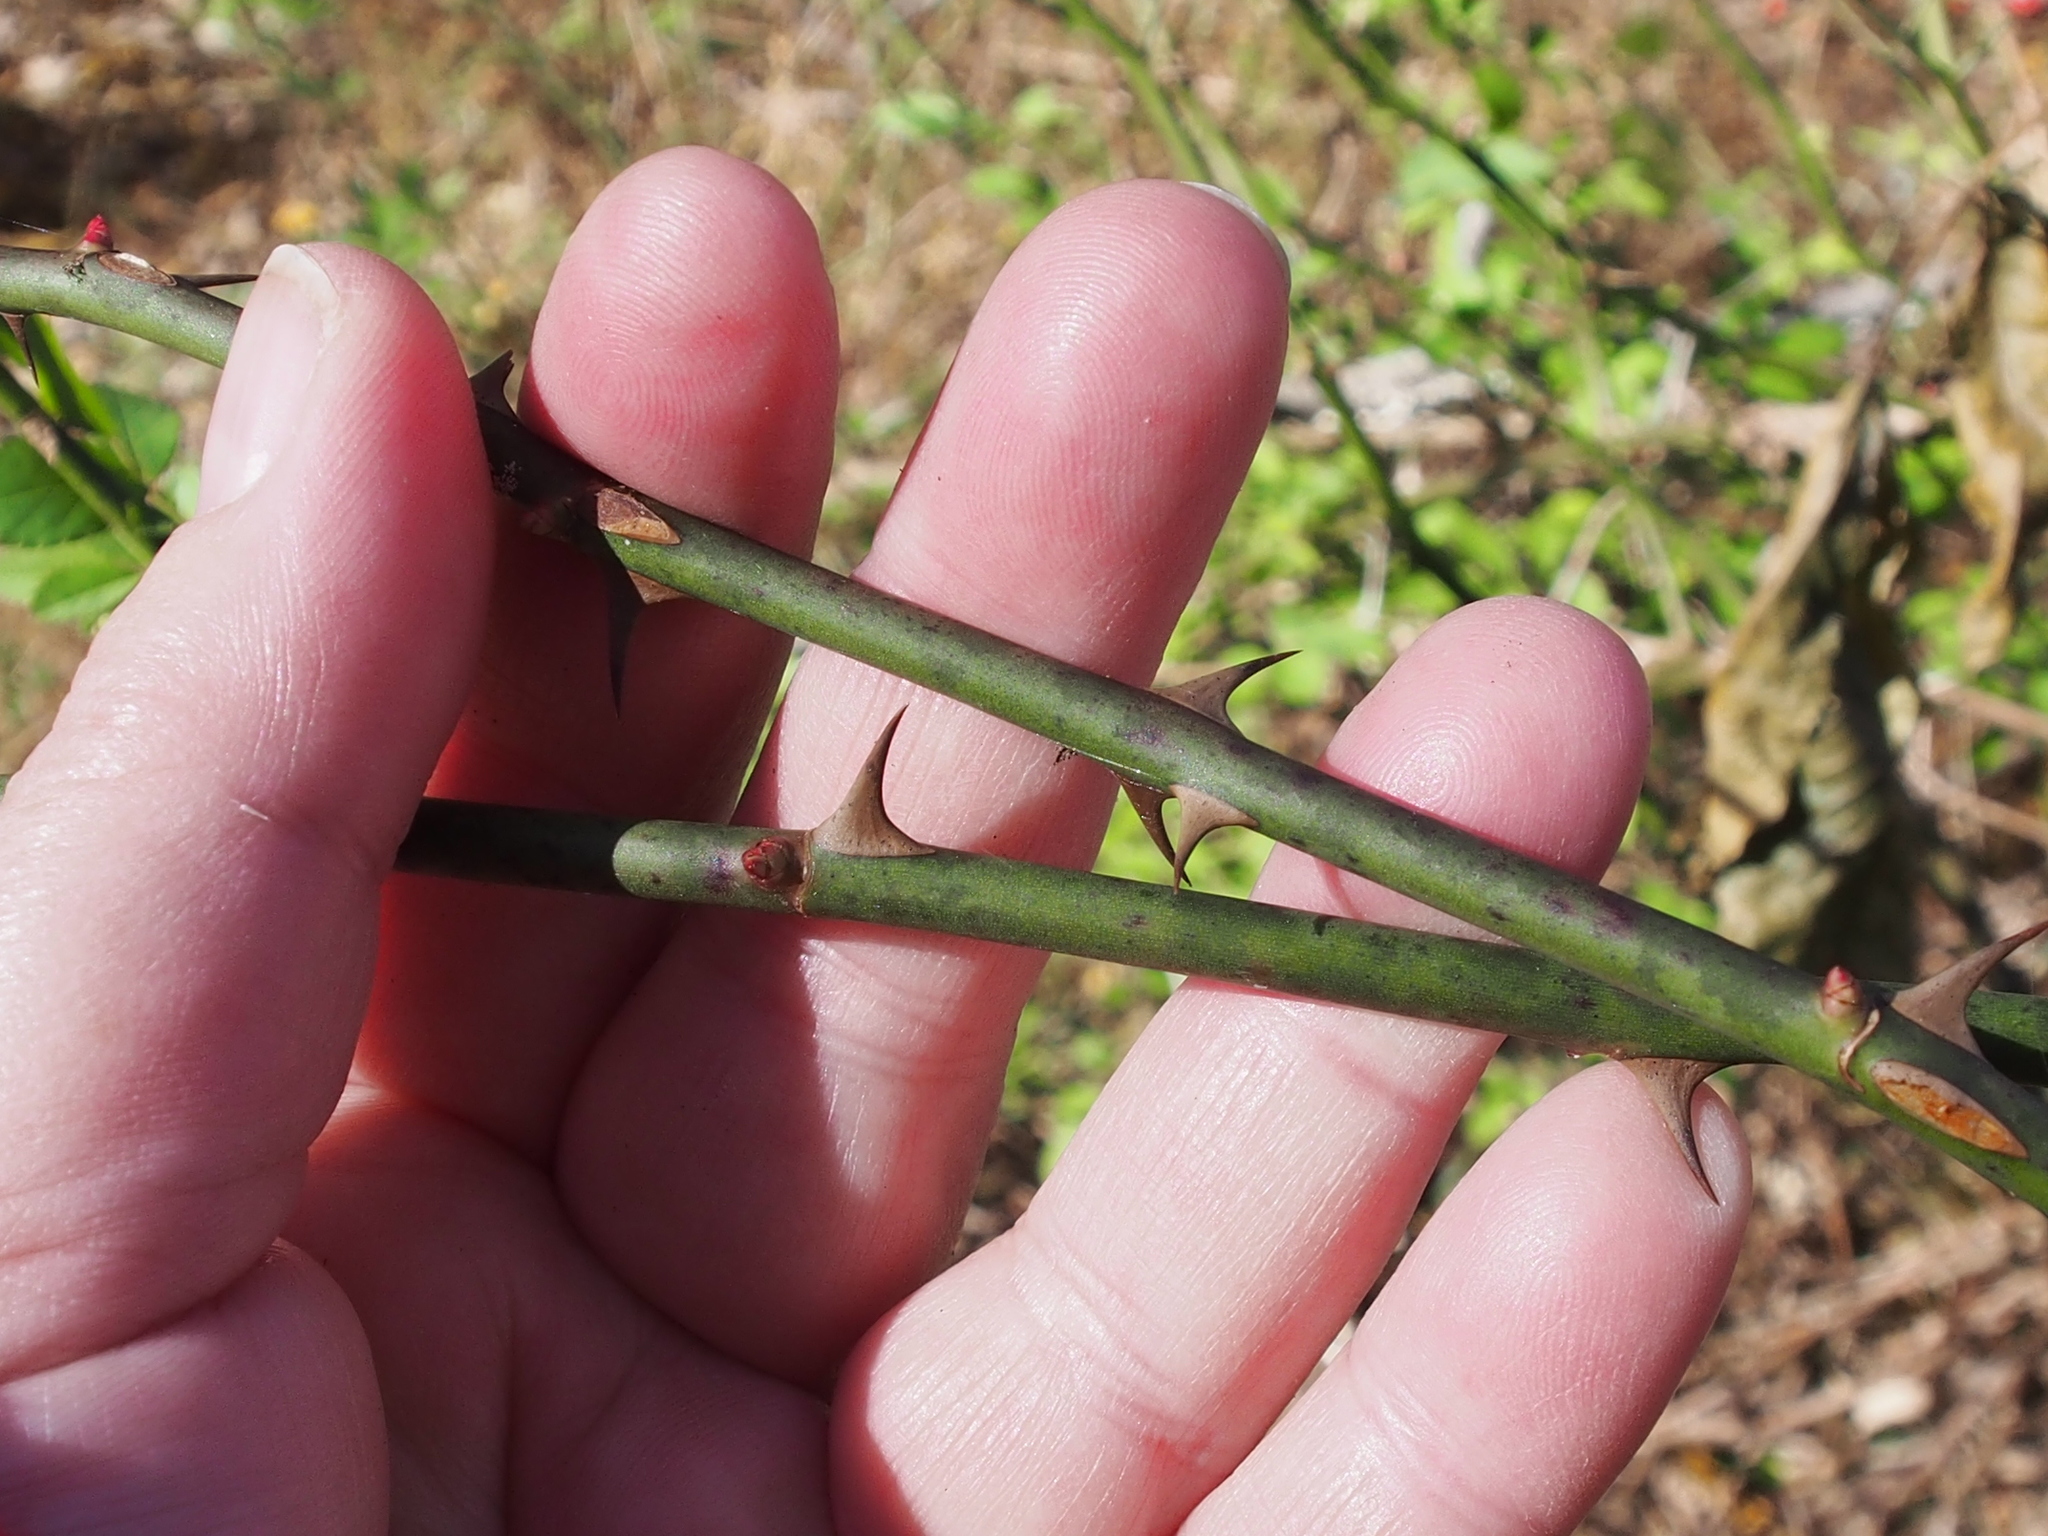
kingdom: Plantae
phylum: Tracheophyta
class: Magnoliopsida
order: Rosales
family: Rosaceae
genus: Rosa
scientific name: Rosa multiflora
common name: Multiflora rose
